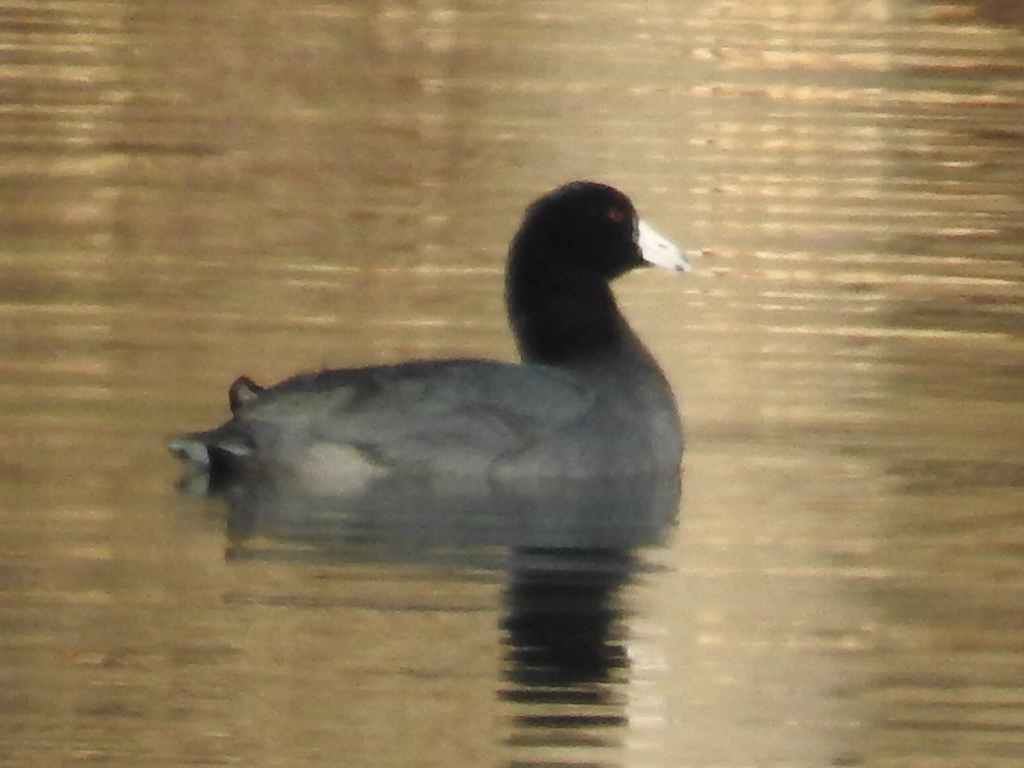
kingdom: Animalia
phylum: Chordata
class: Aves
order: Gruiformes
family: Rallidae
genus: Fulica
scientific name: Fulica americana
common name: American coot
